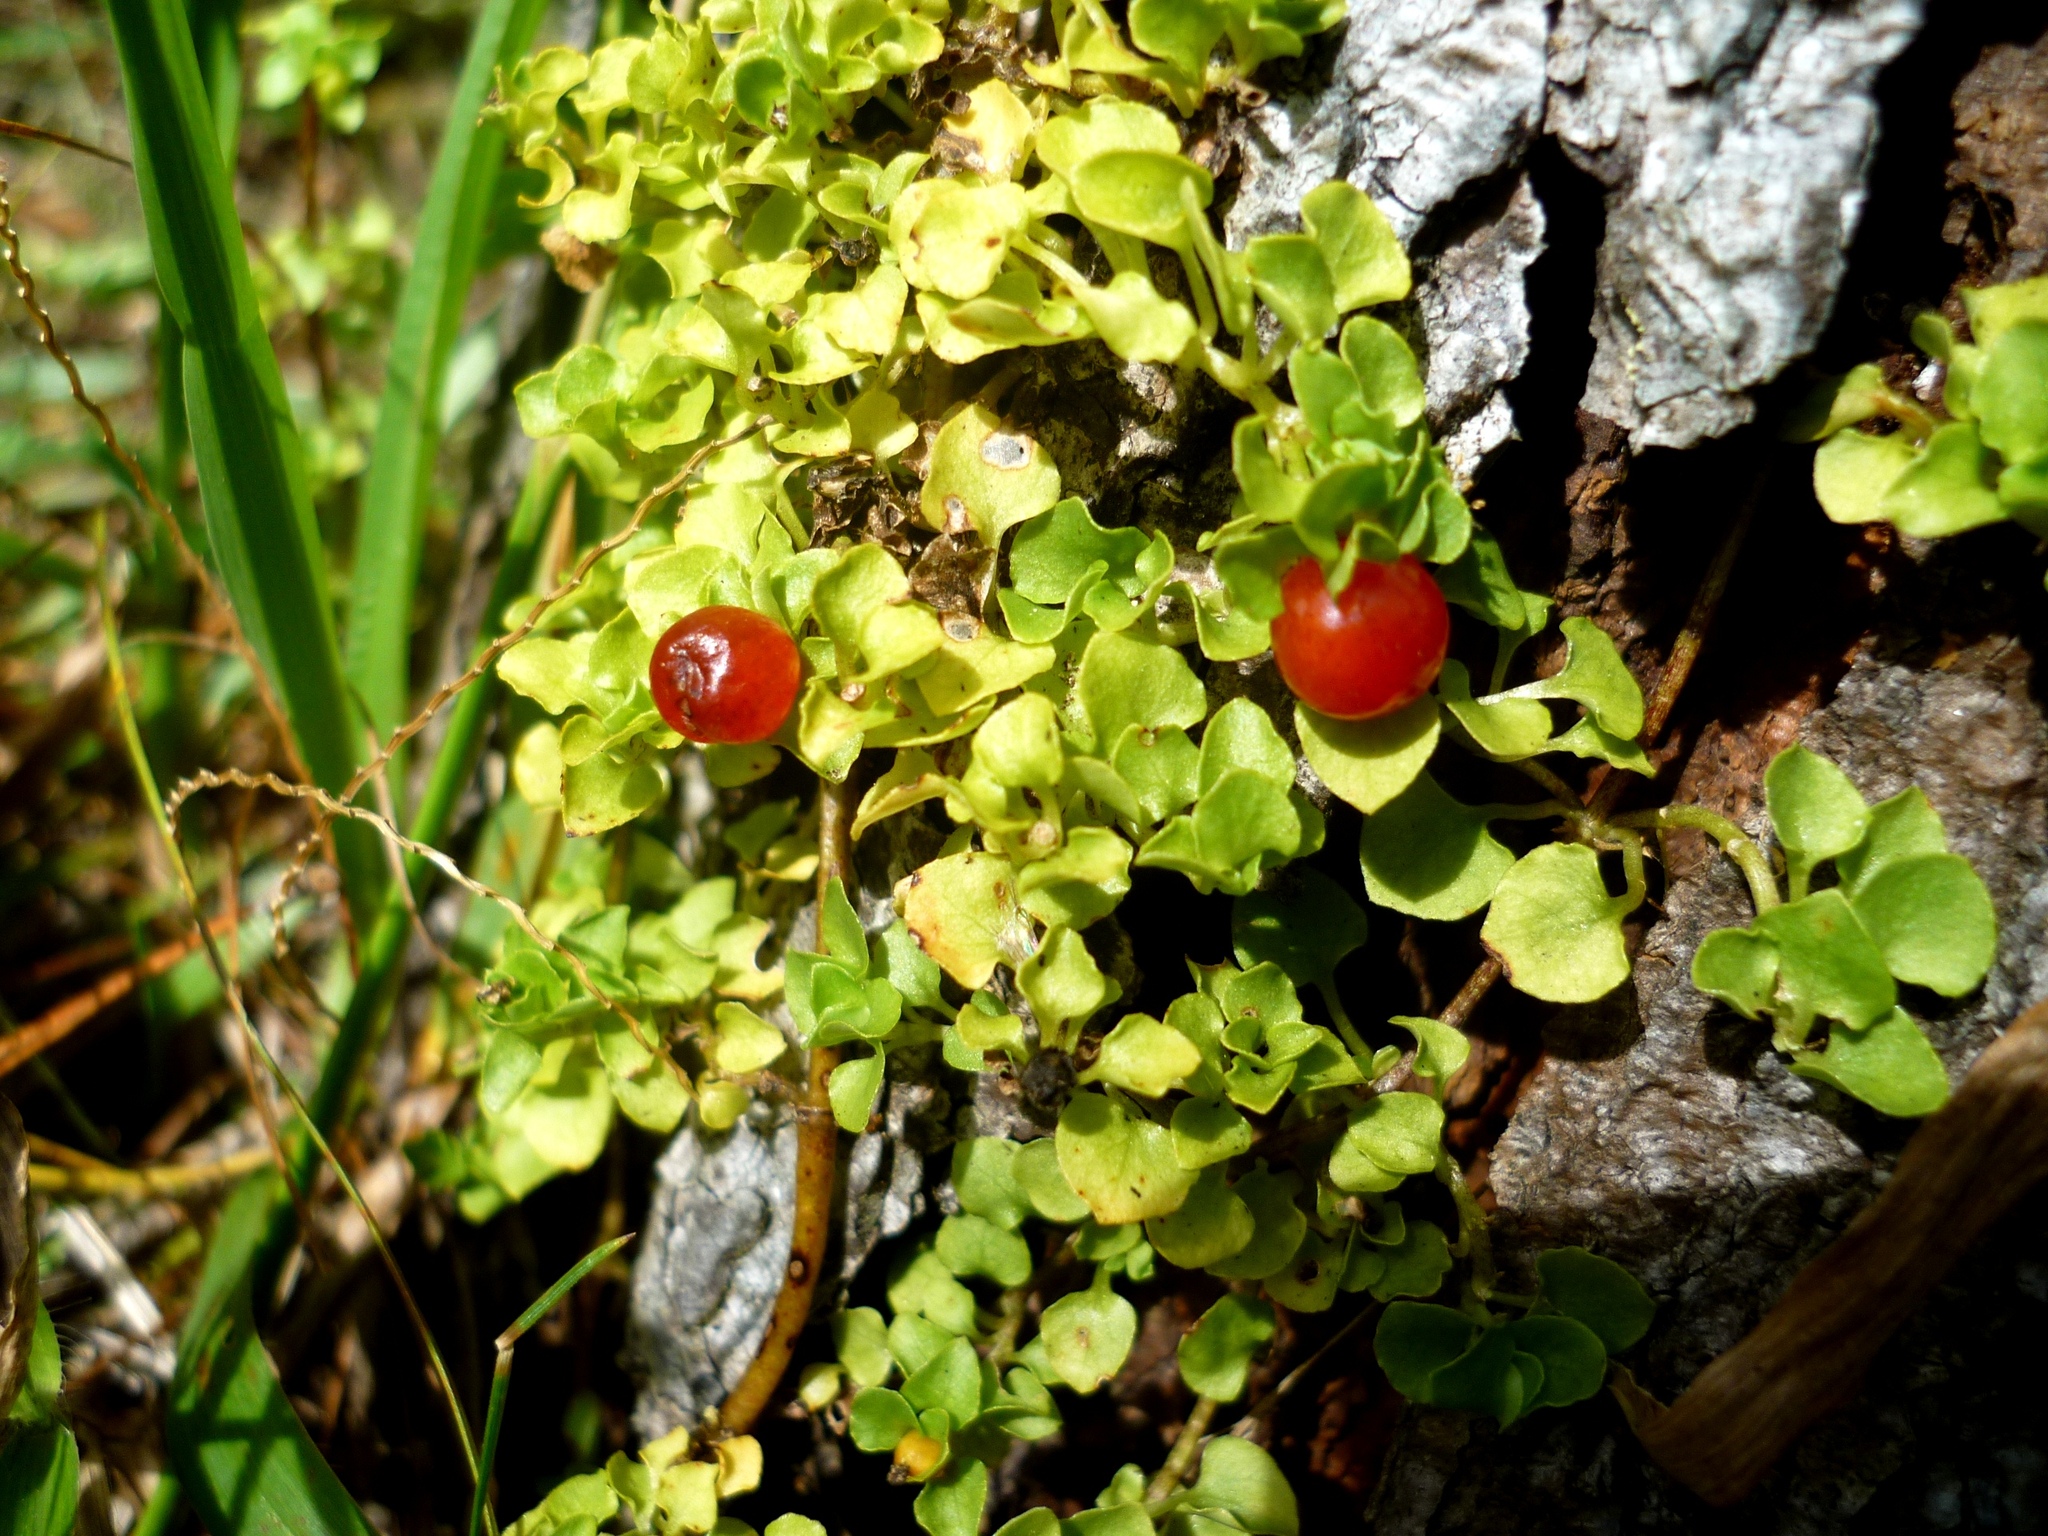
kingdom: Plantae
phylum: Tracheophyta
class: Magnoliopsida
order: Gentianales
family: Rubiaceae
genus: Nertera
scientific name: Nertera granadensis
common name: Beadplant
